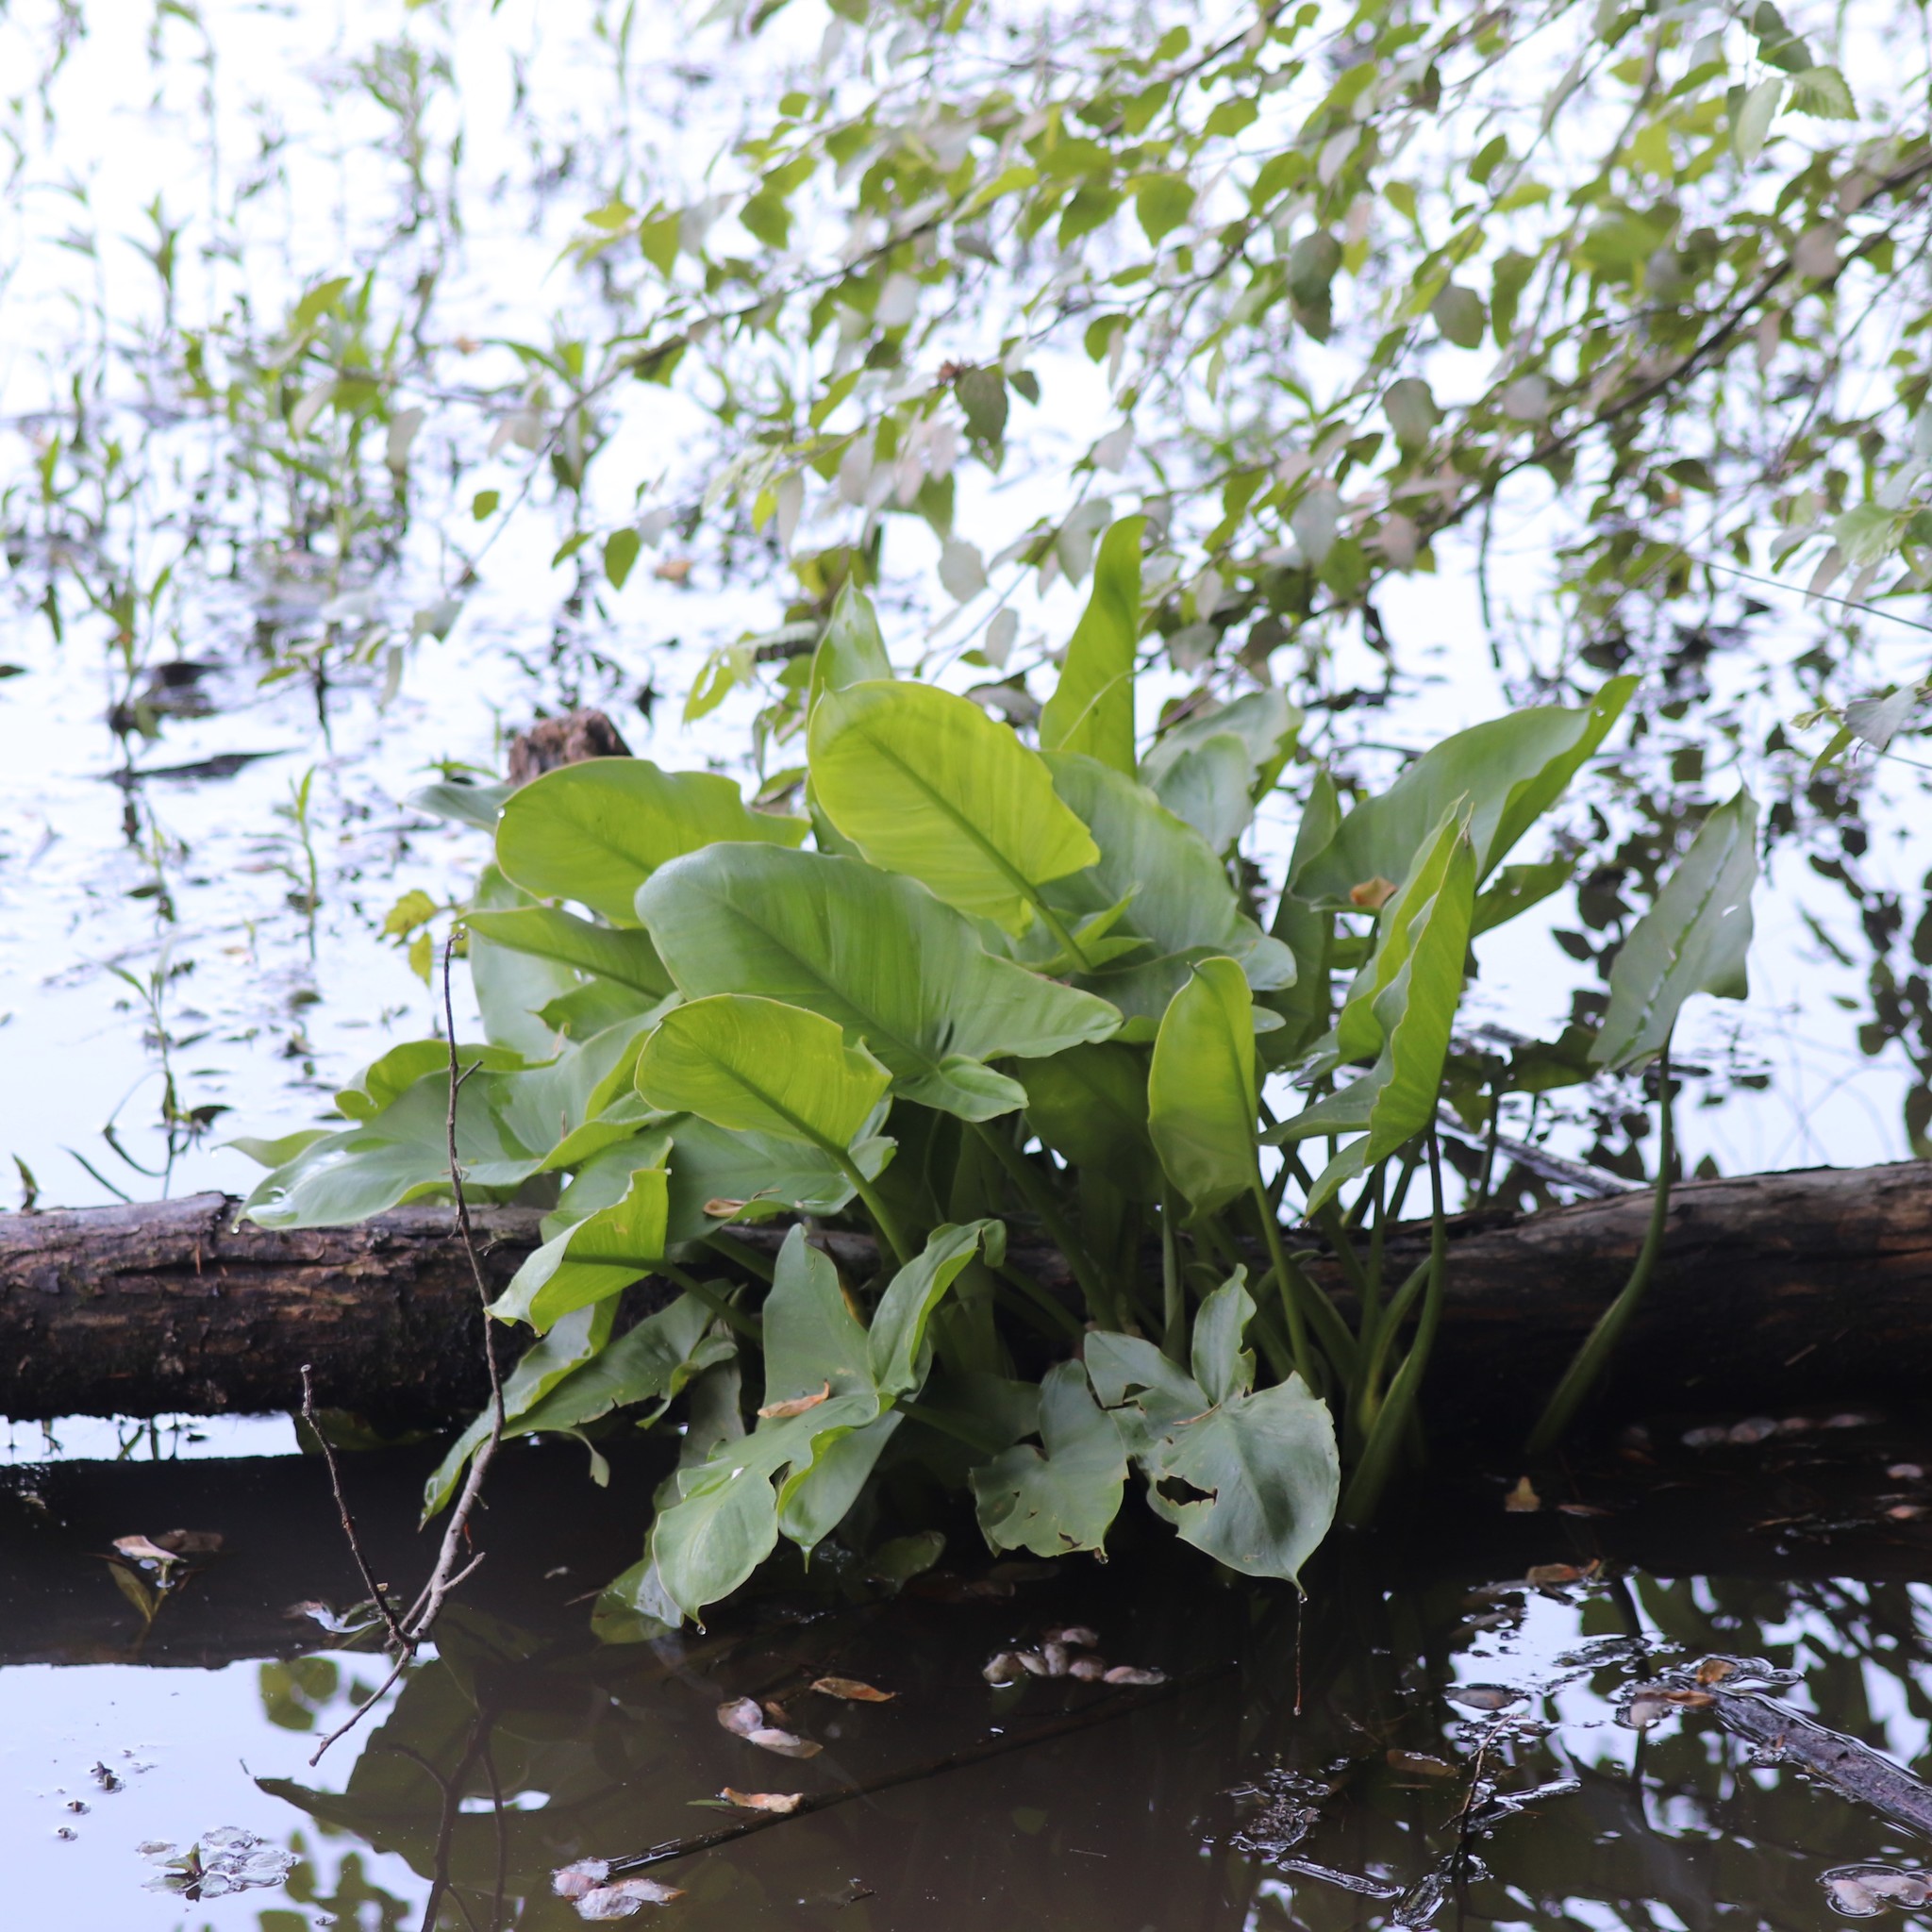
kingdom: Plantae
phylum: Tracheophyta
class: Liliopsida
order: Alismatales
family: Araceae
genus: Peltandra
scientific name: Peltandra virginica
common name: Arrow arum
